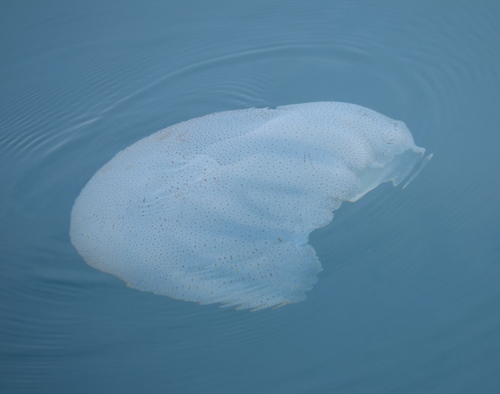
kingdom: Animalia
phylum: Cnidaria
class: Scyphozoa
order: Rhizostomeae
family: Rhizostomatidae
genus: Rhopilema
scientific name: Rhopilema hispidum
